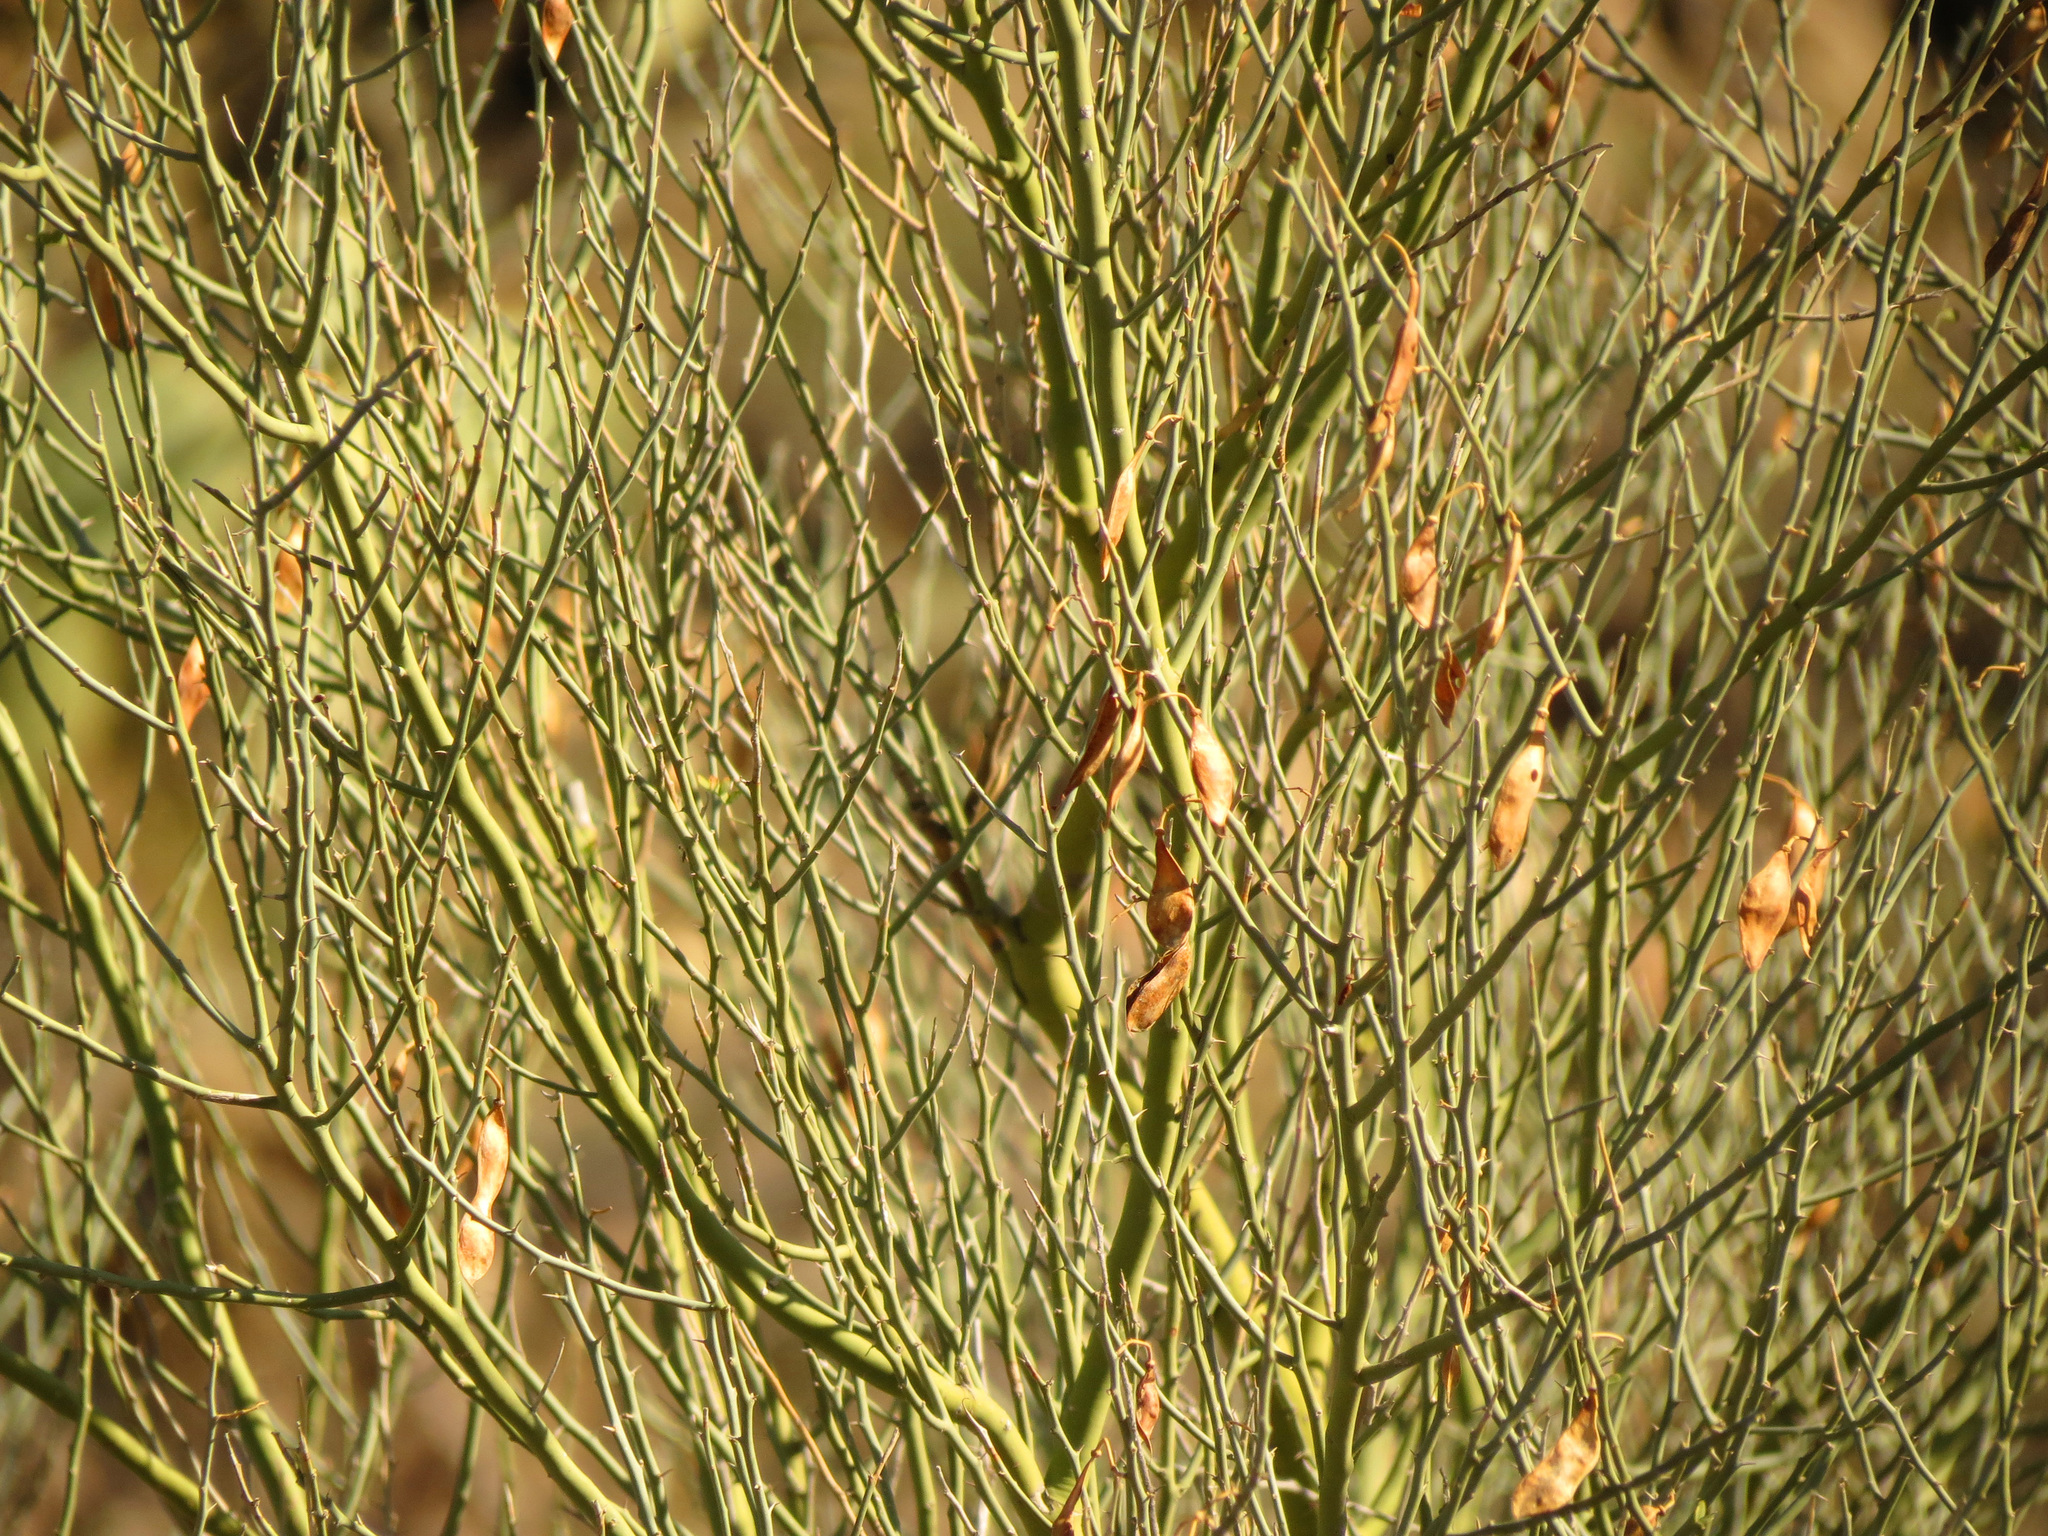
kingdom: Plantae
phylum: Tracheophyta
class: Magnoliopsida
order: Fabales
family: Fabaceae
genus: Parkinsonia
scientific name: Parkinsonia florida
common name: Blue paloverde
